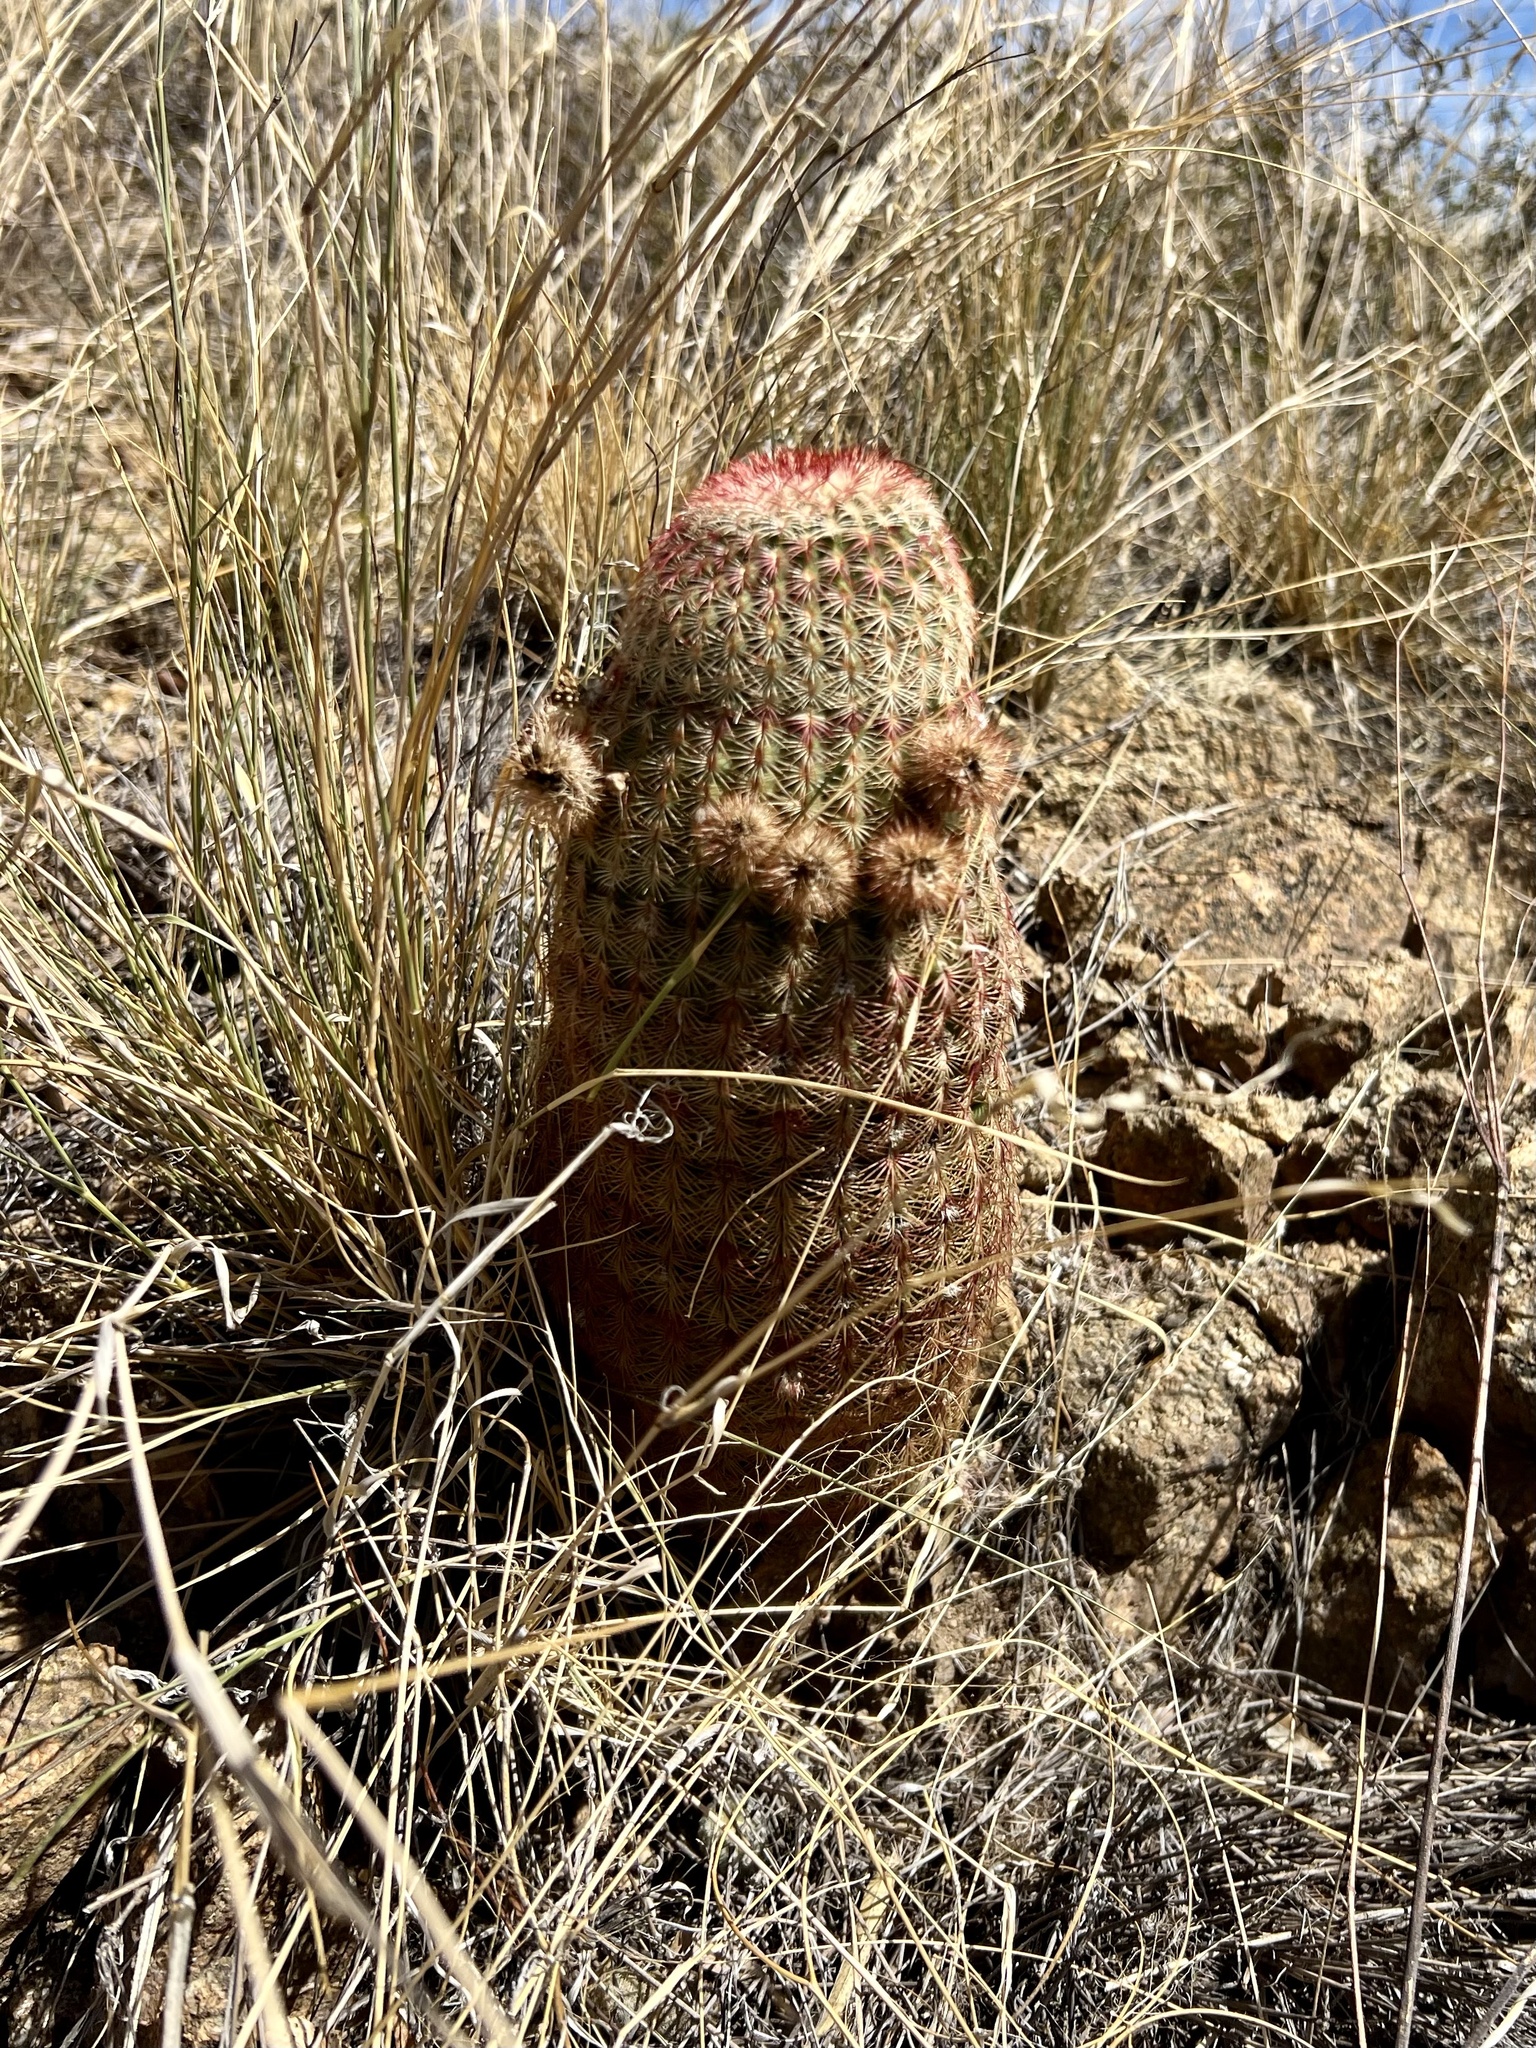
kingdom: Plantae
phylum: Tracheophyta
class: Magnoliopsida
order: Caryophyllales
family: Cactaceae
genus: Echinocereus
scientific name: Echinocereus rigidissimus
